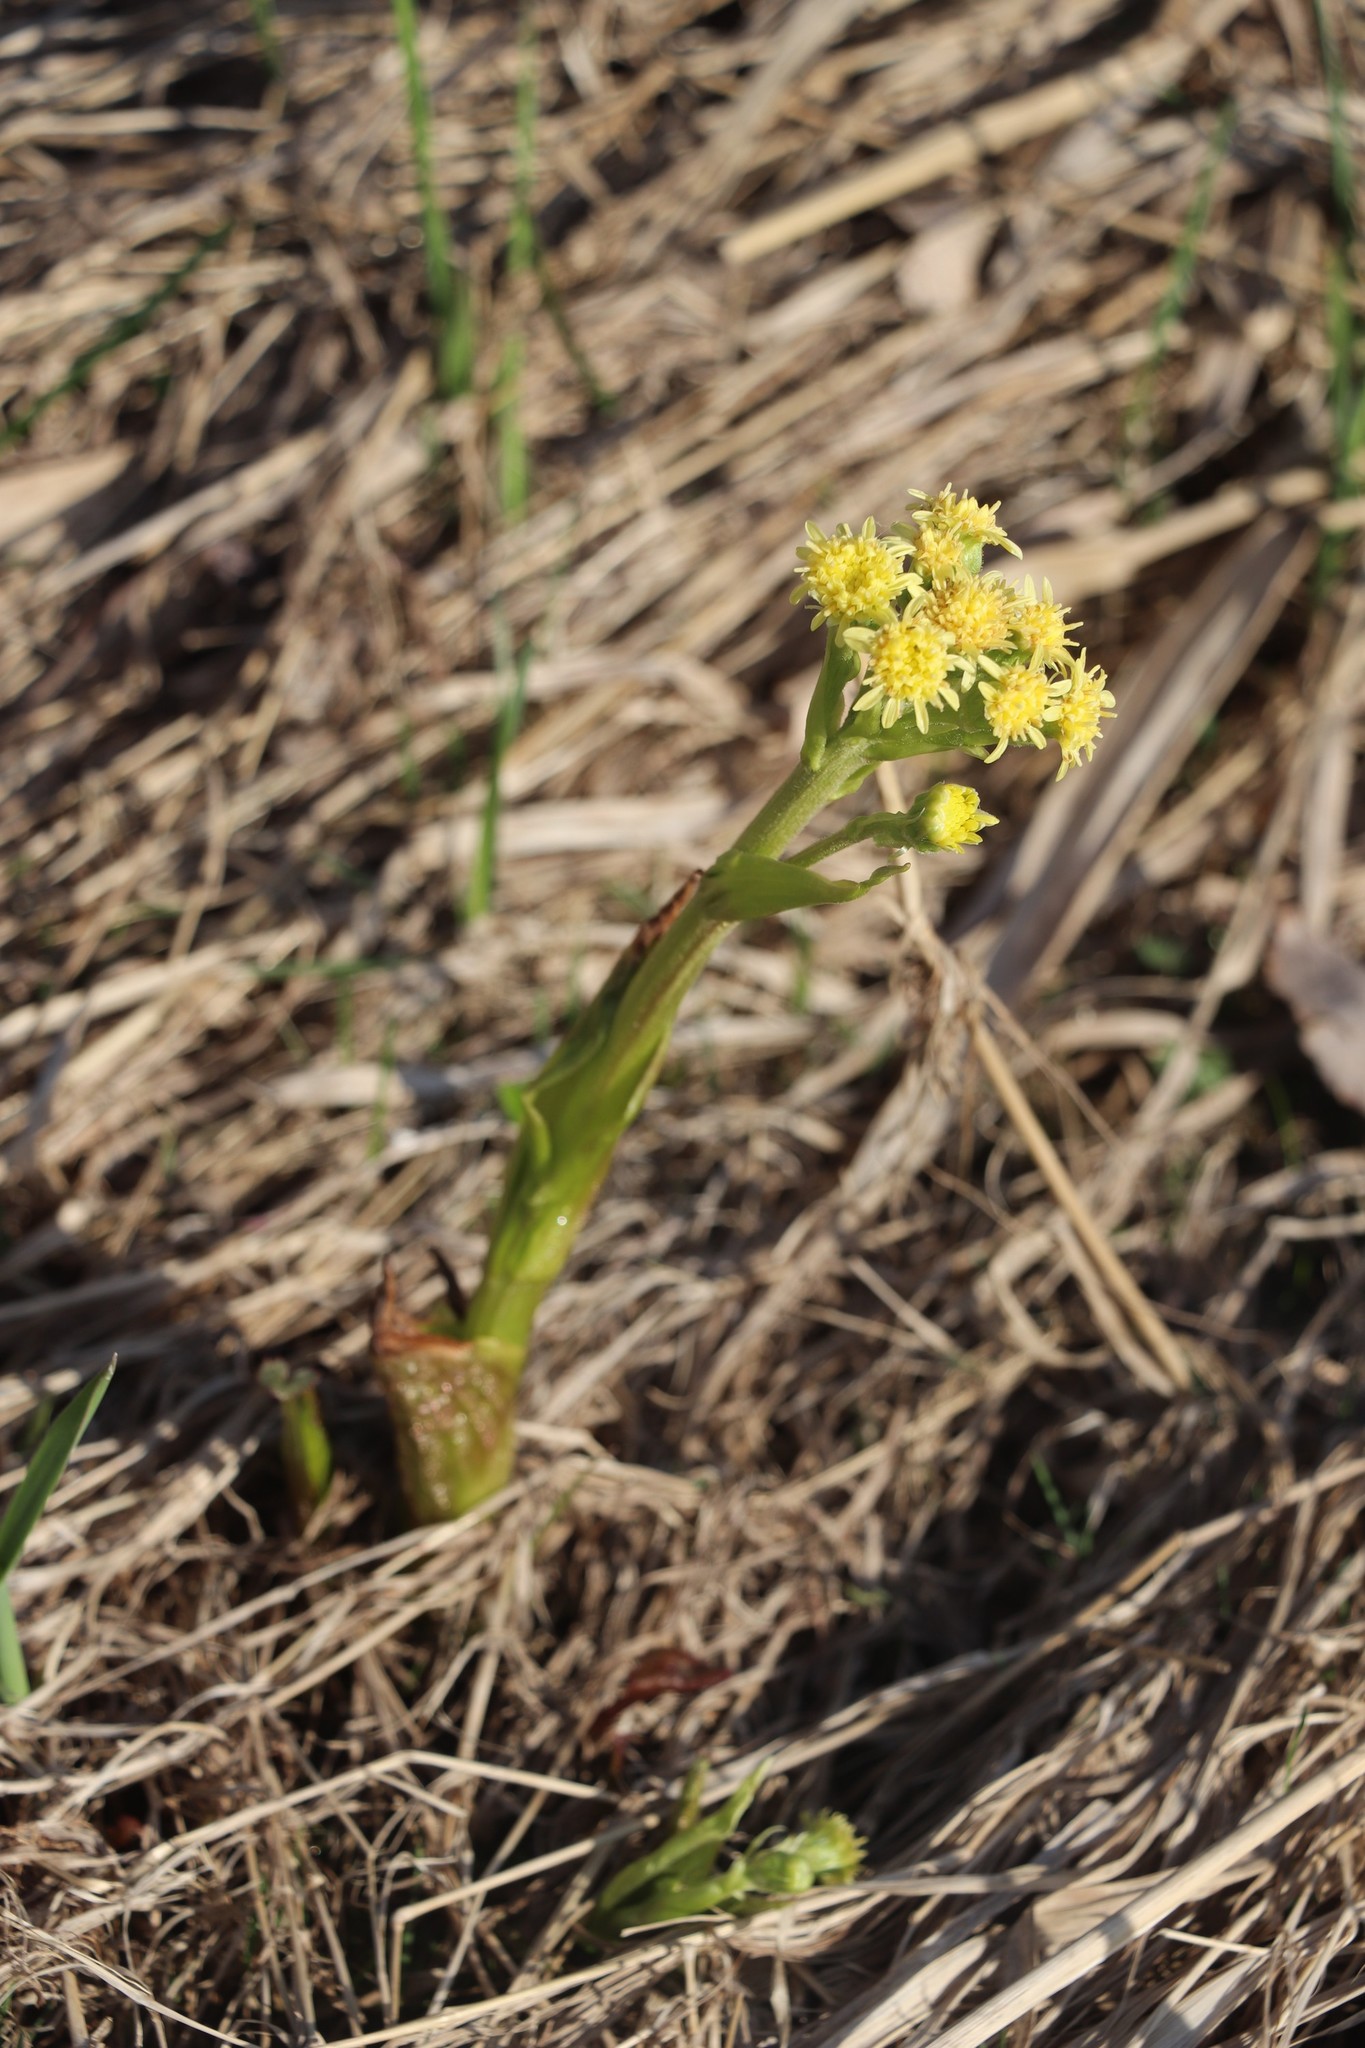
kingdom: Plantae
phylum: Tracheophyta
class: Magnoliopsida
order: Asterales
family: Asteraceae
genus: Petasites
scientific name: Petasites radiatus
